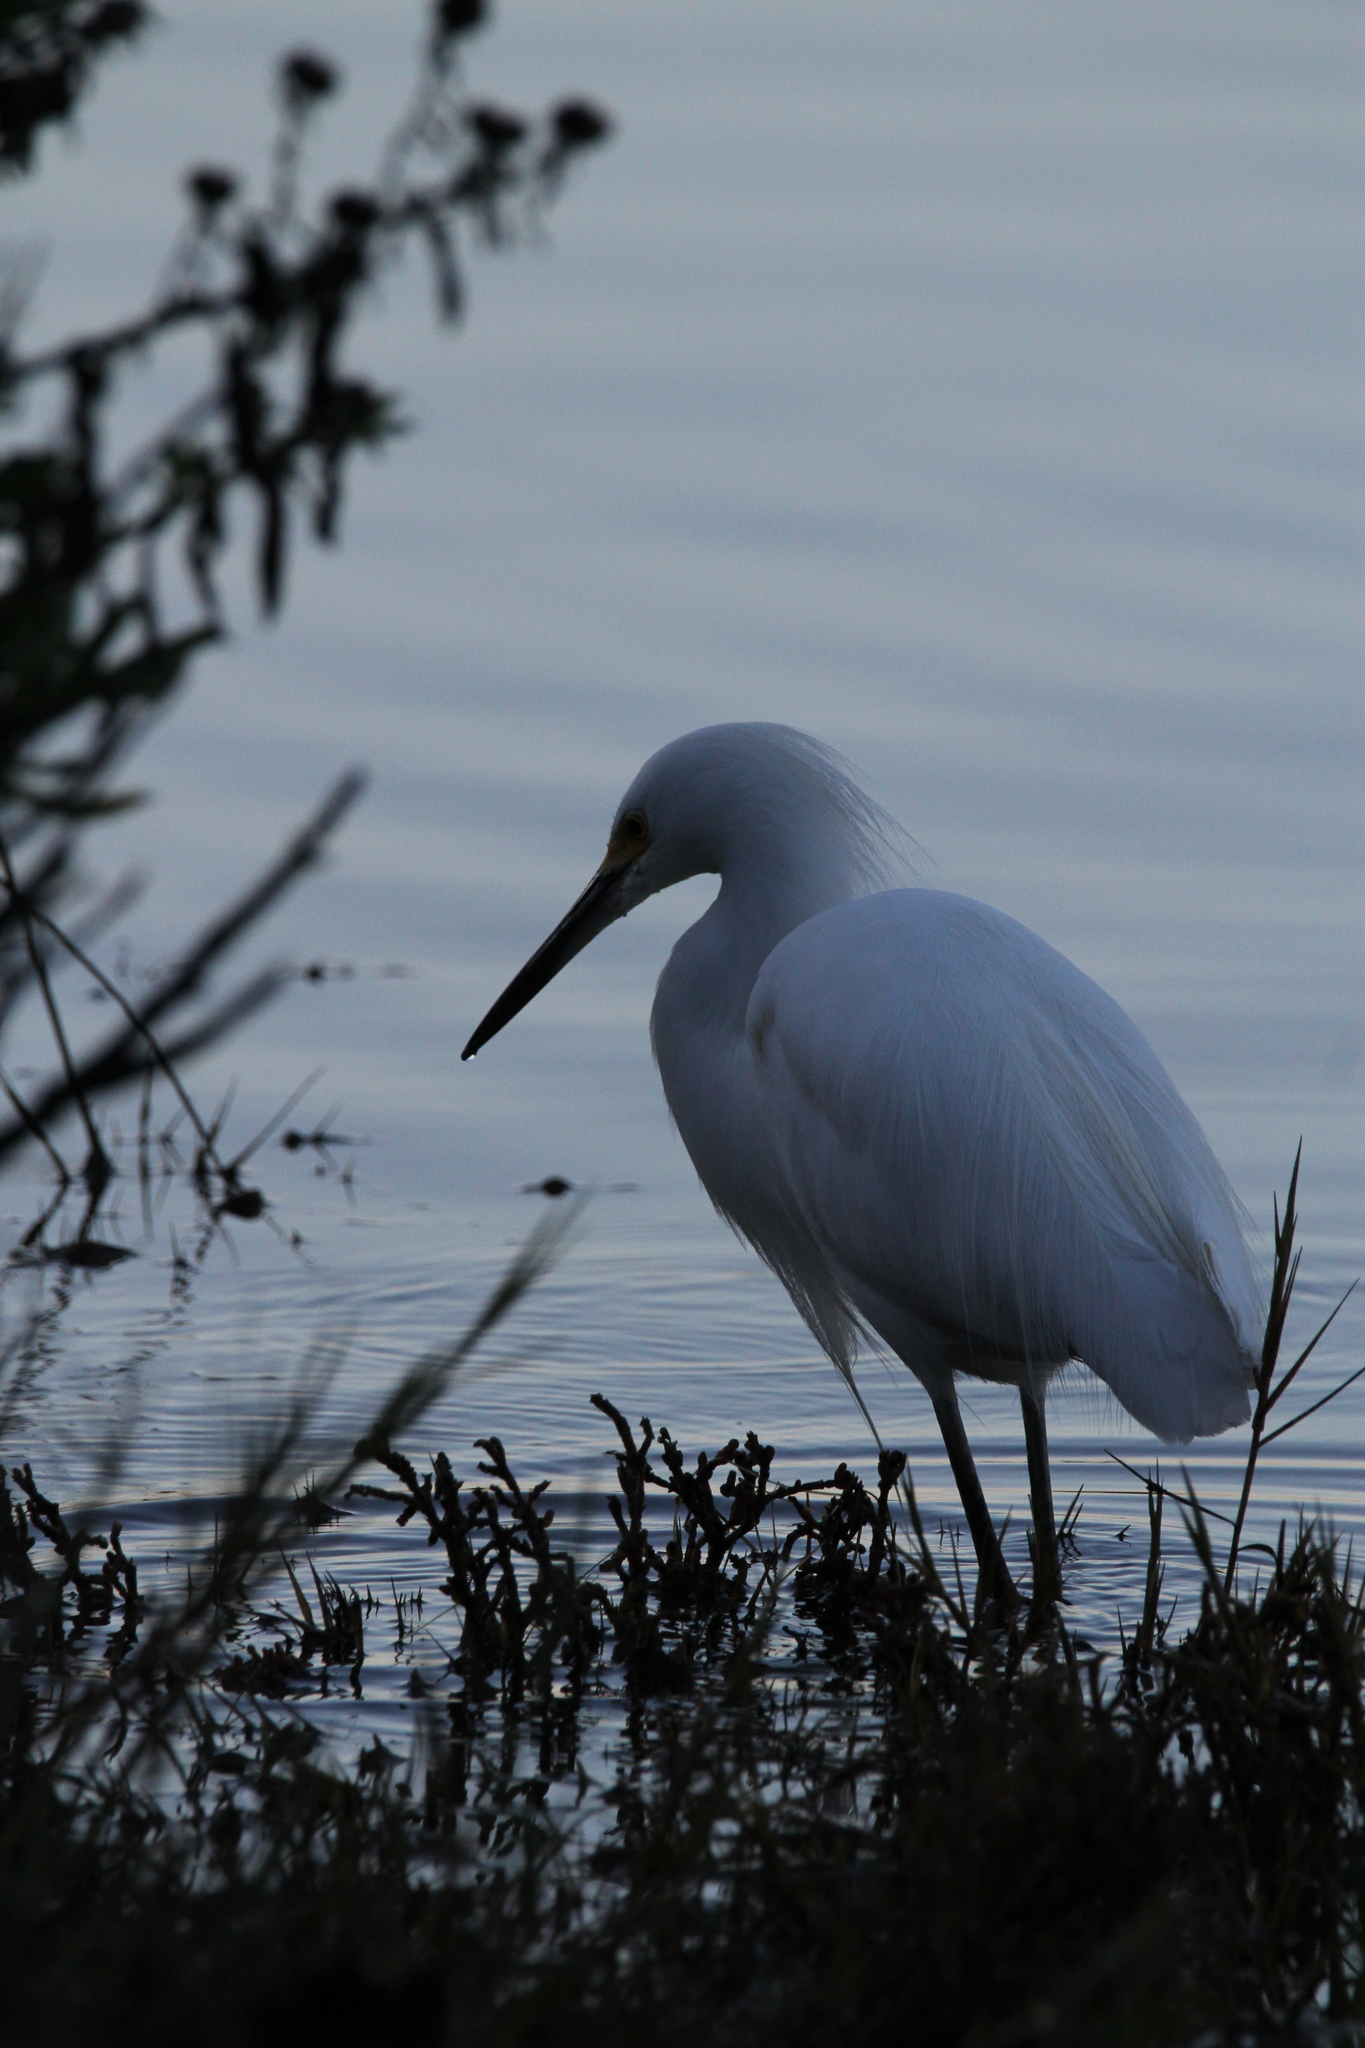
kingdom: Animalia
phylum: Chordata
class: Aves
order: Pelecaniformes
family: Ardeidae
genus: Egretta
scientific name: Egretta thula
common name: Snowy egret
